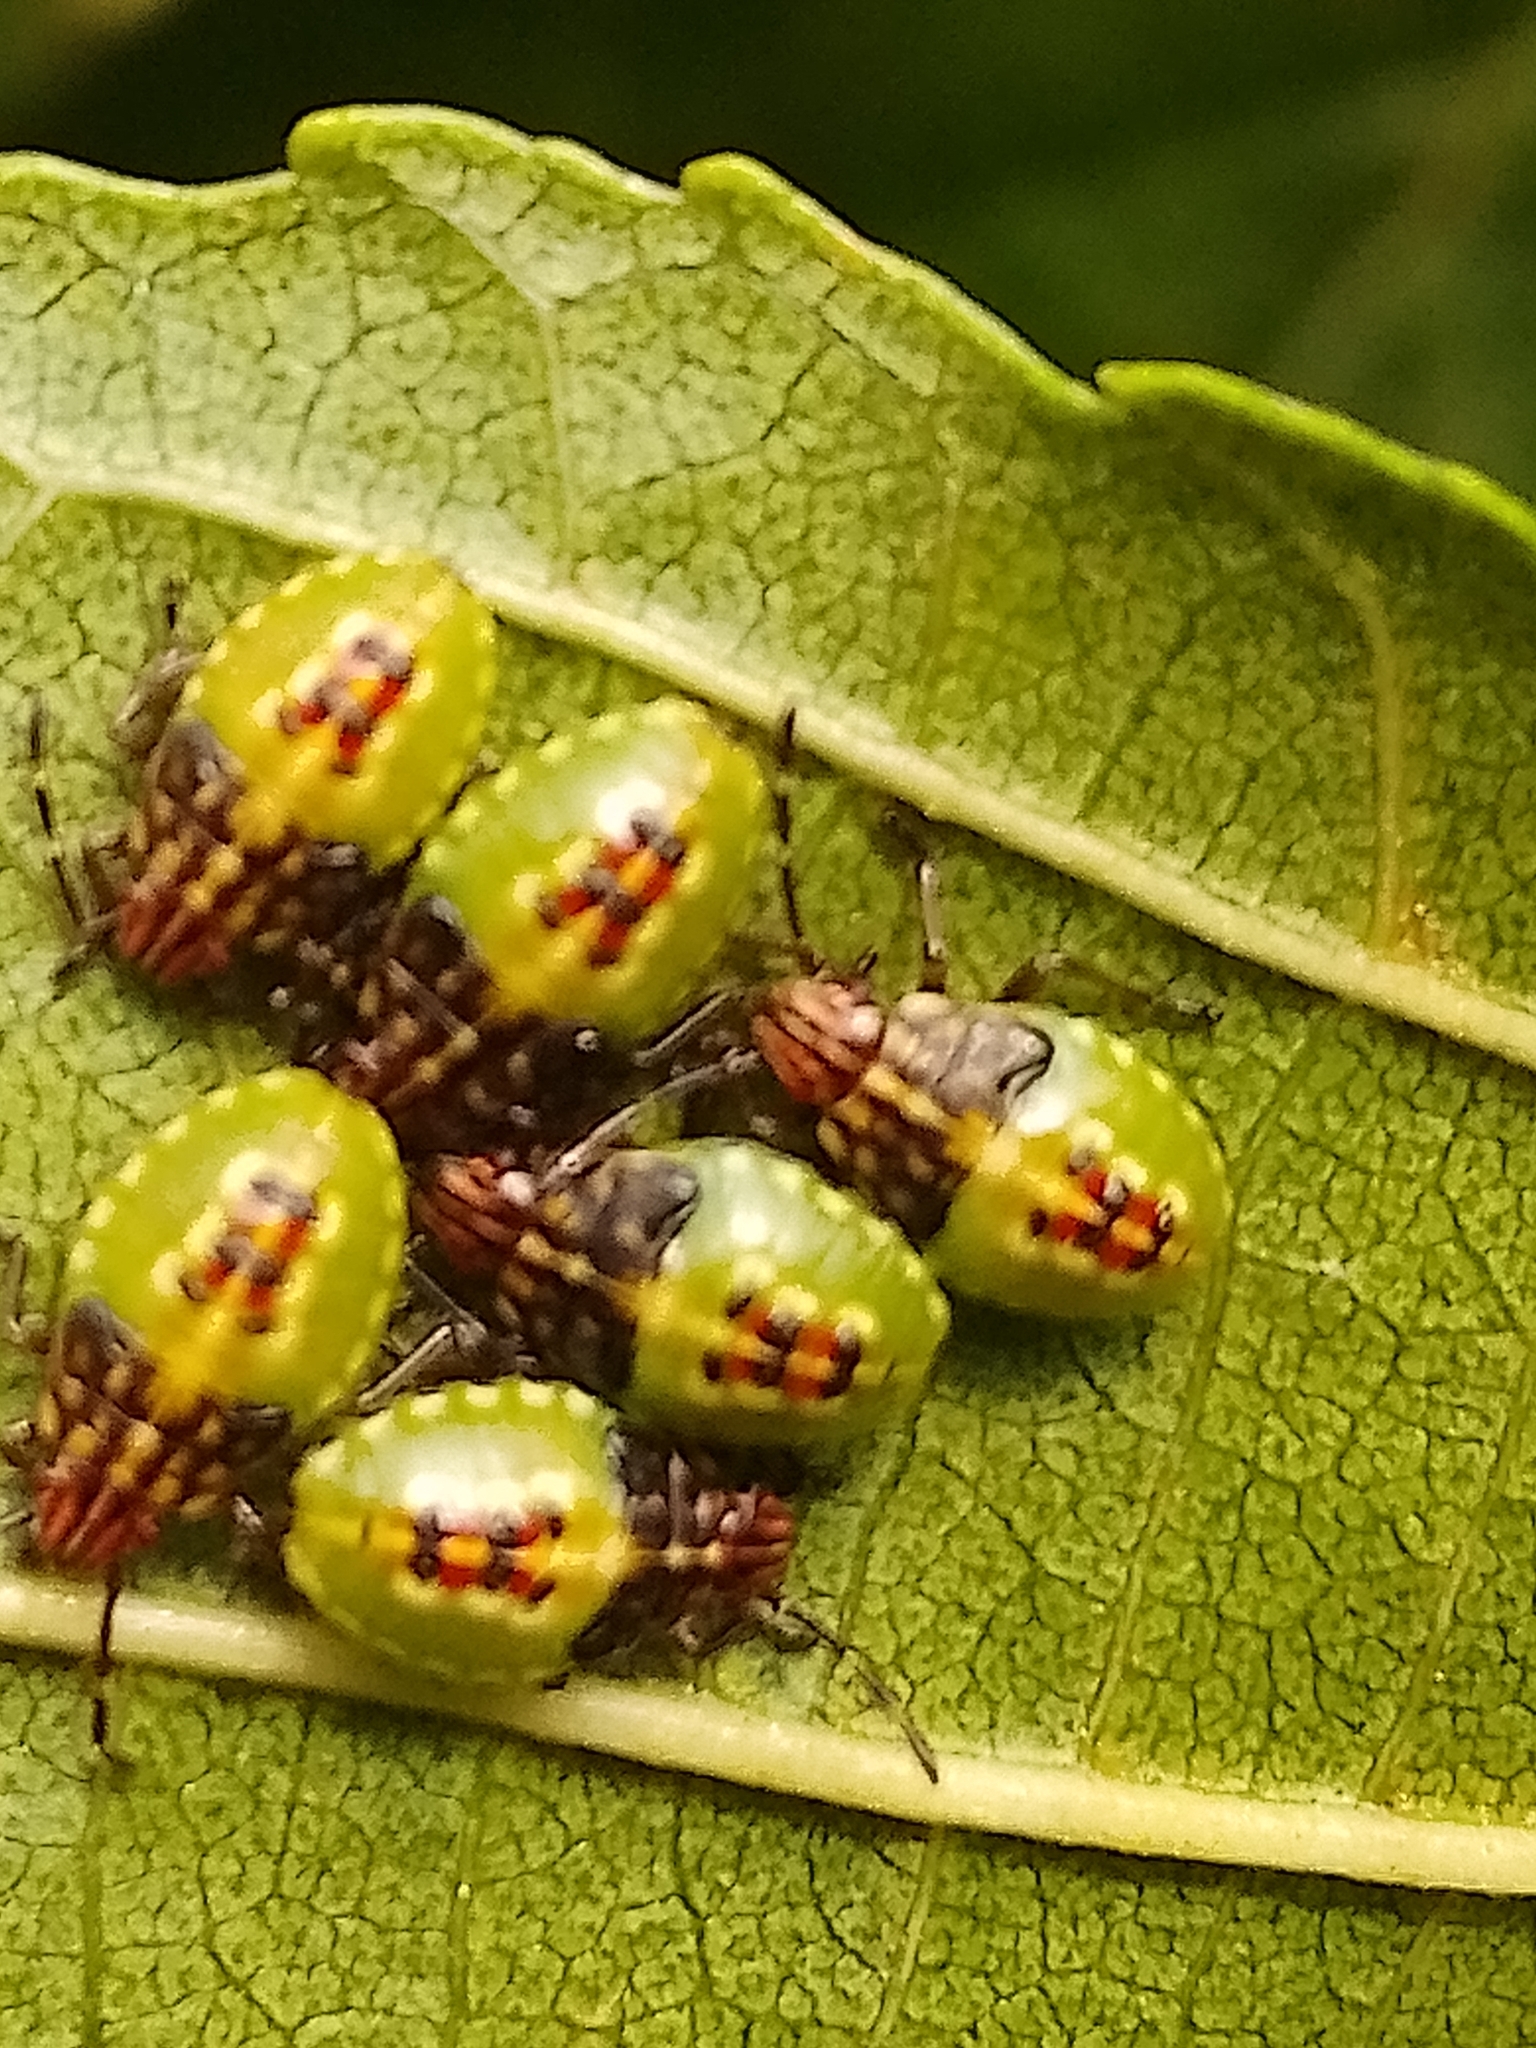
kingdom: Animalia
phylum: Arthropoda
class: Insecta
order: Hemiptera
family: Acanthosomatidae
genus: Elasmucha
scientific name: Elasmucha grisea
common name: Parent bug
